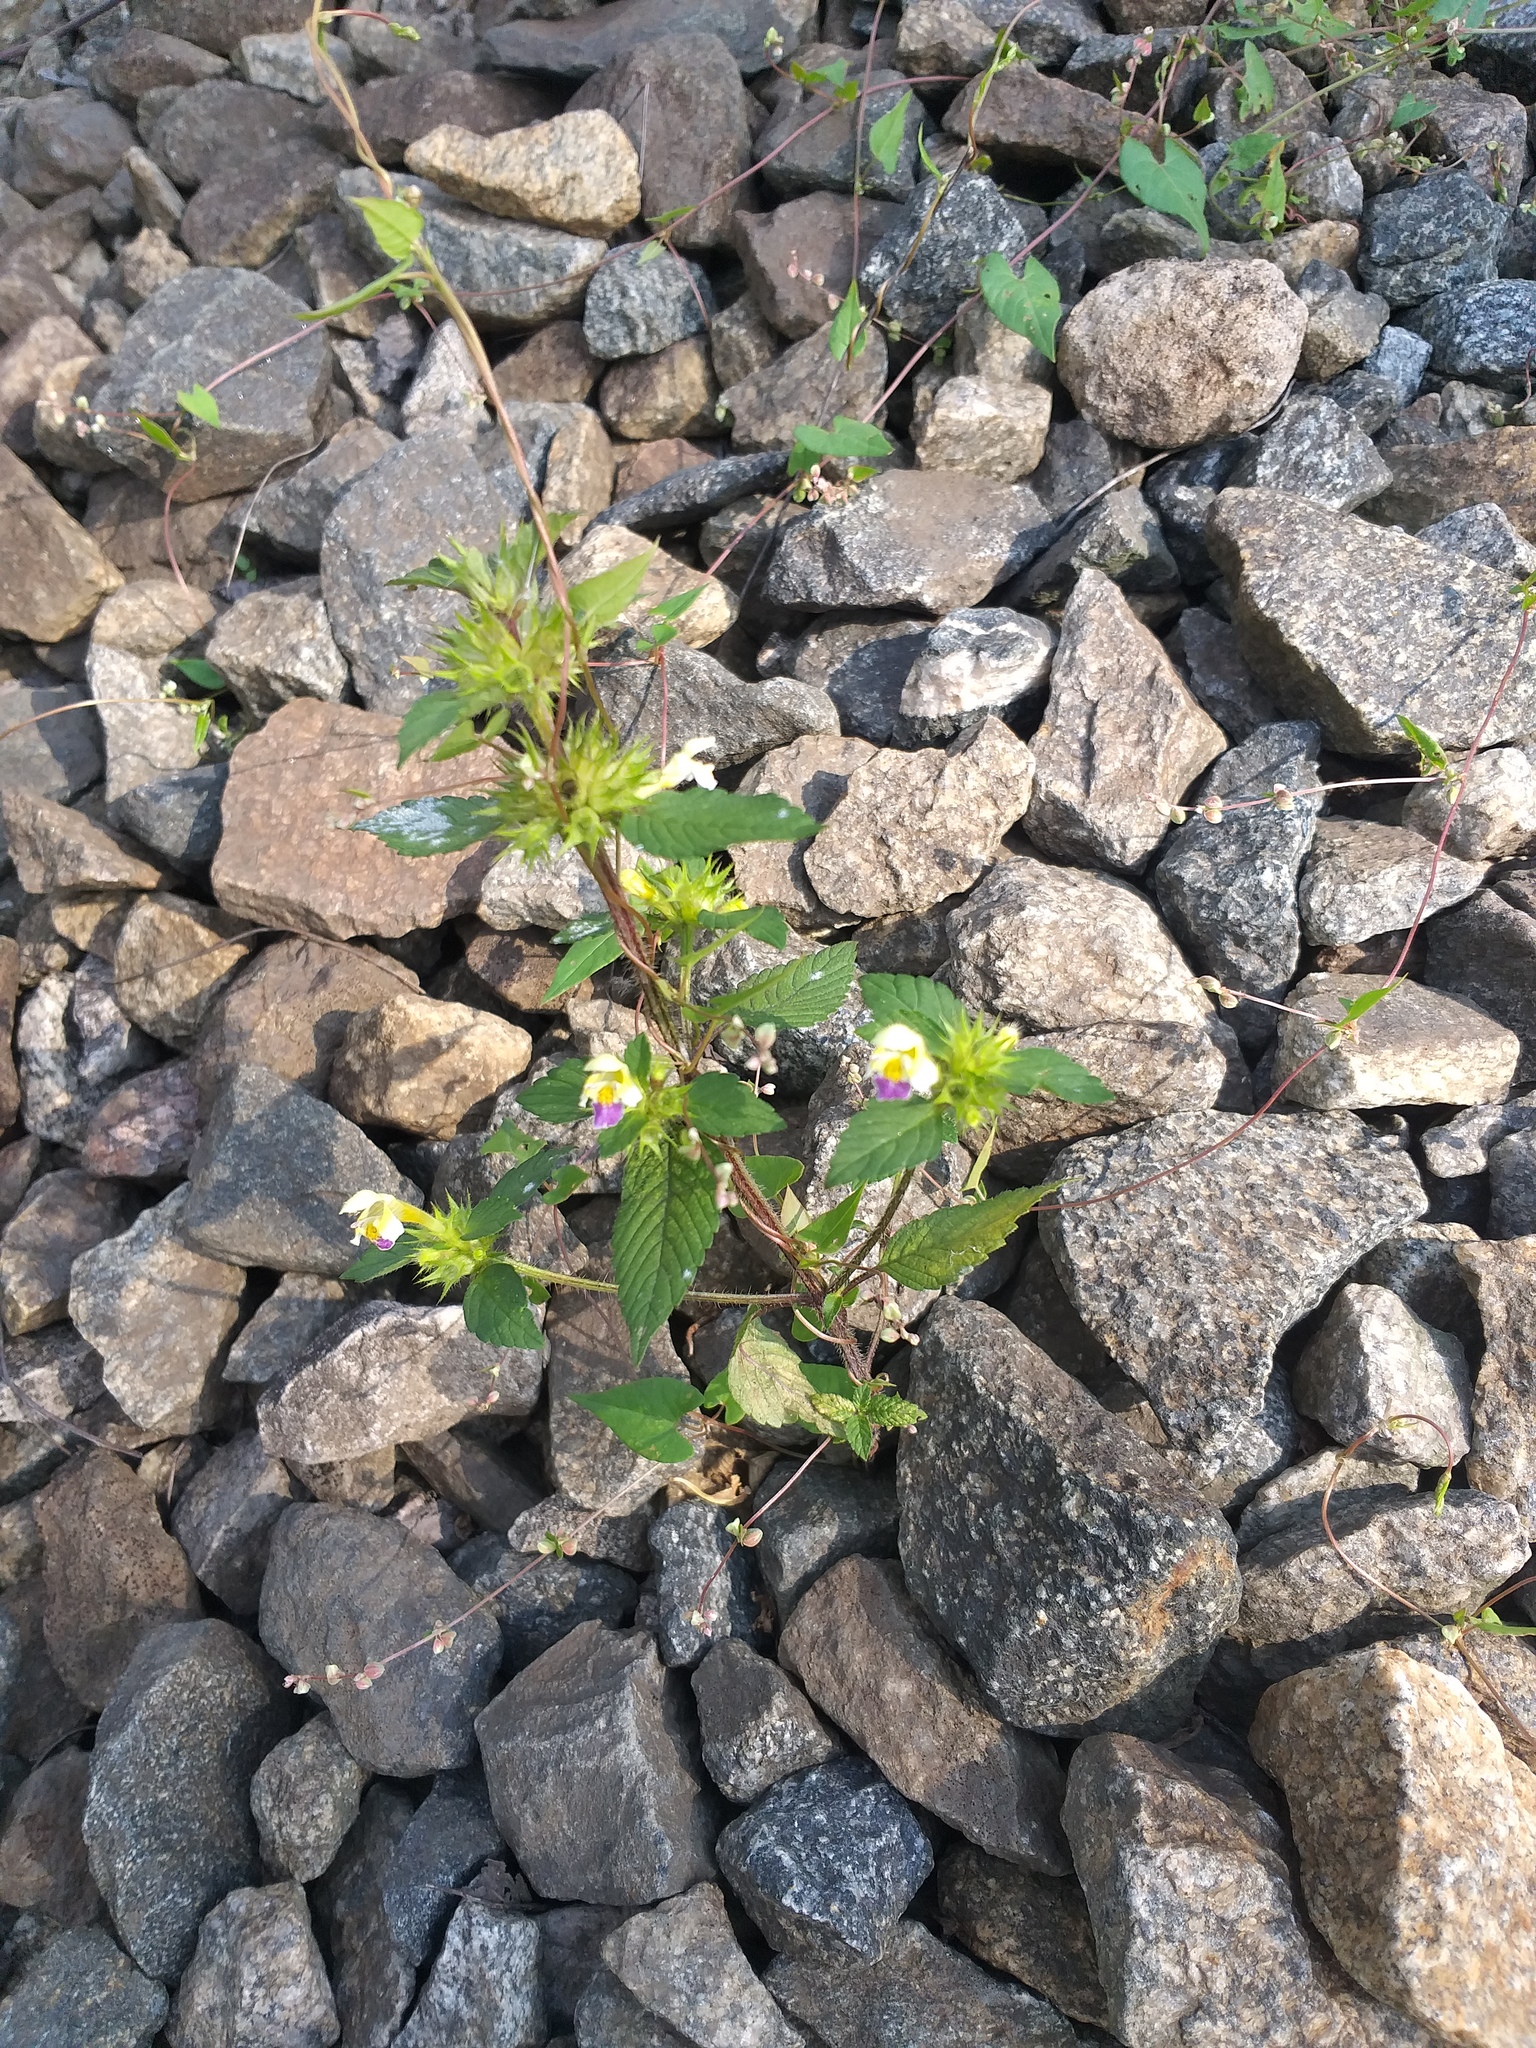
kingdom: Plantae
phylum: Tracheophyta
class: Magnoliopsida
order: Lamiales
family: Lamiaceae
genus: Galeopsis
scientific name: Galeopsis speciosa
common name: Large-flowered hemp-nettle
